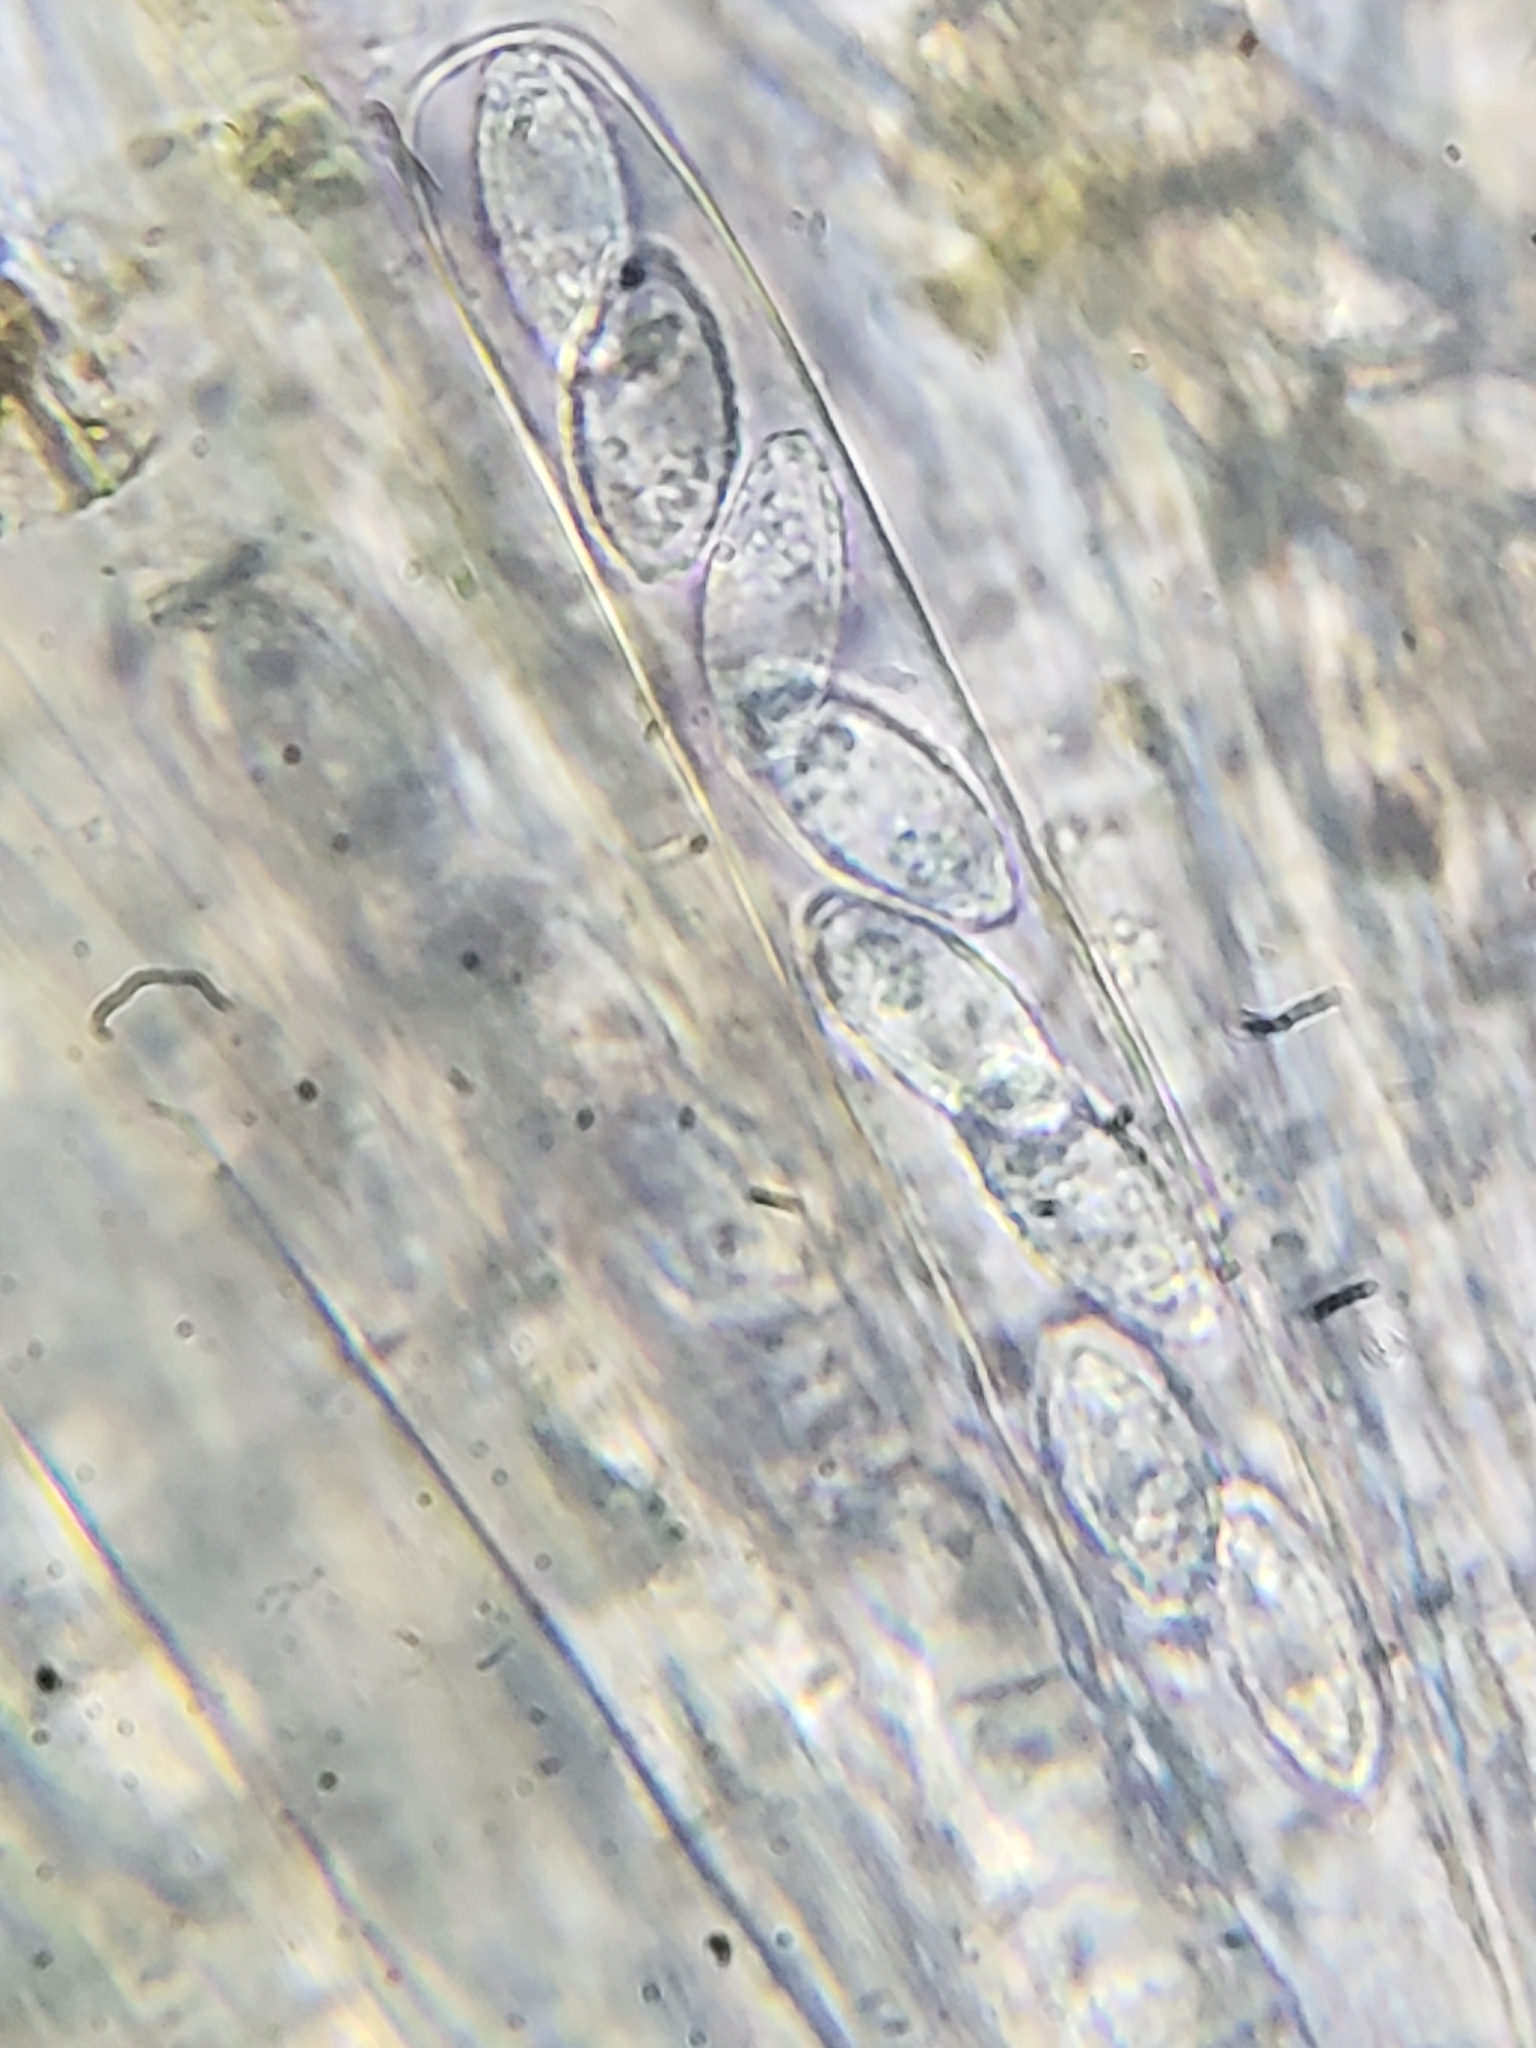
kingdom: Fungi
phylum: Ascomycota
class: Pezizomycetes
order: Pezizales
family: Pezizaceae
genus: Phylloscypha
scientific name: Phylloscypha phyllogena
